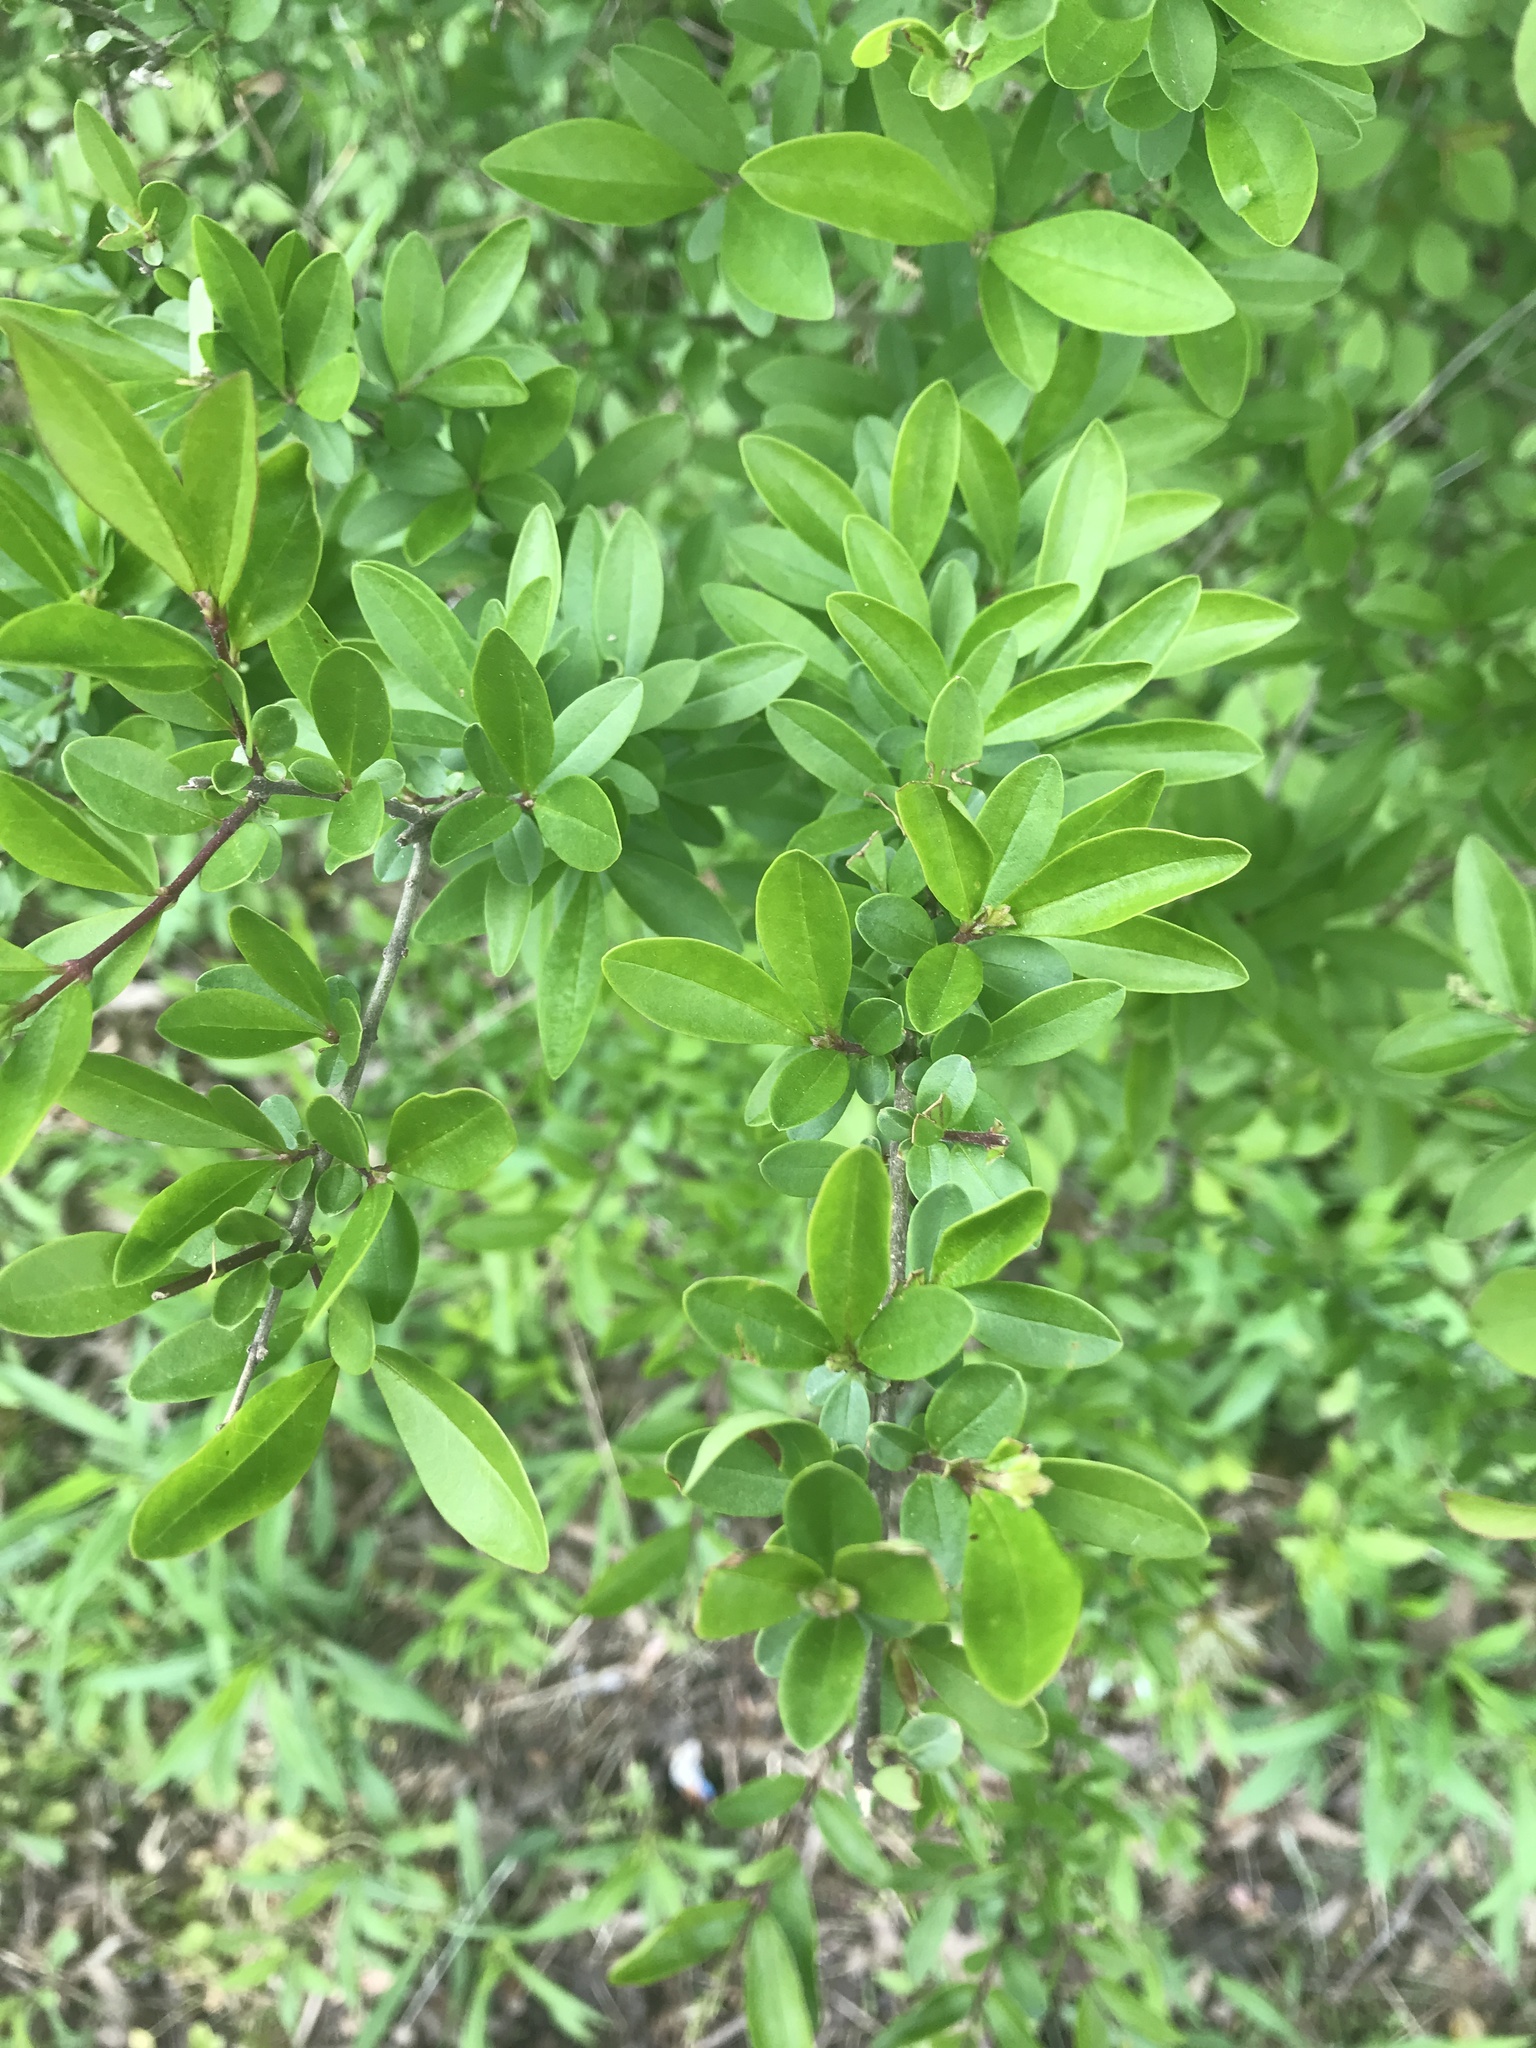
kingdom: Plantae
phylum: Tracheophyta
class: Magnoliopsida
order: Lamiales
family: Oleaceae
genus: Ligustrum
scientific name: Ligustrum
